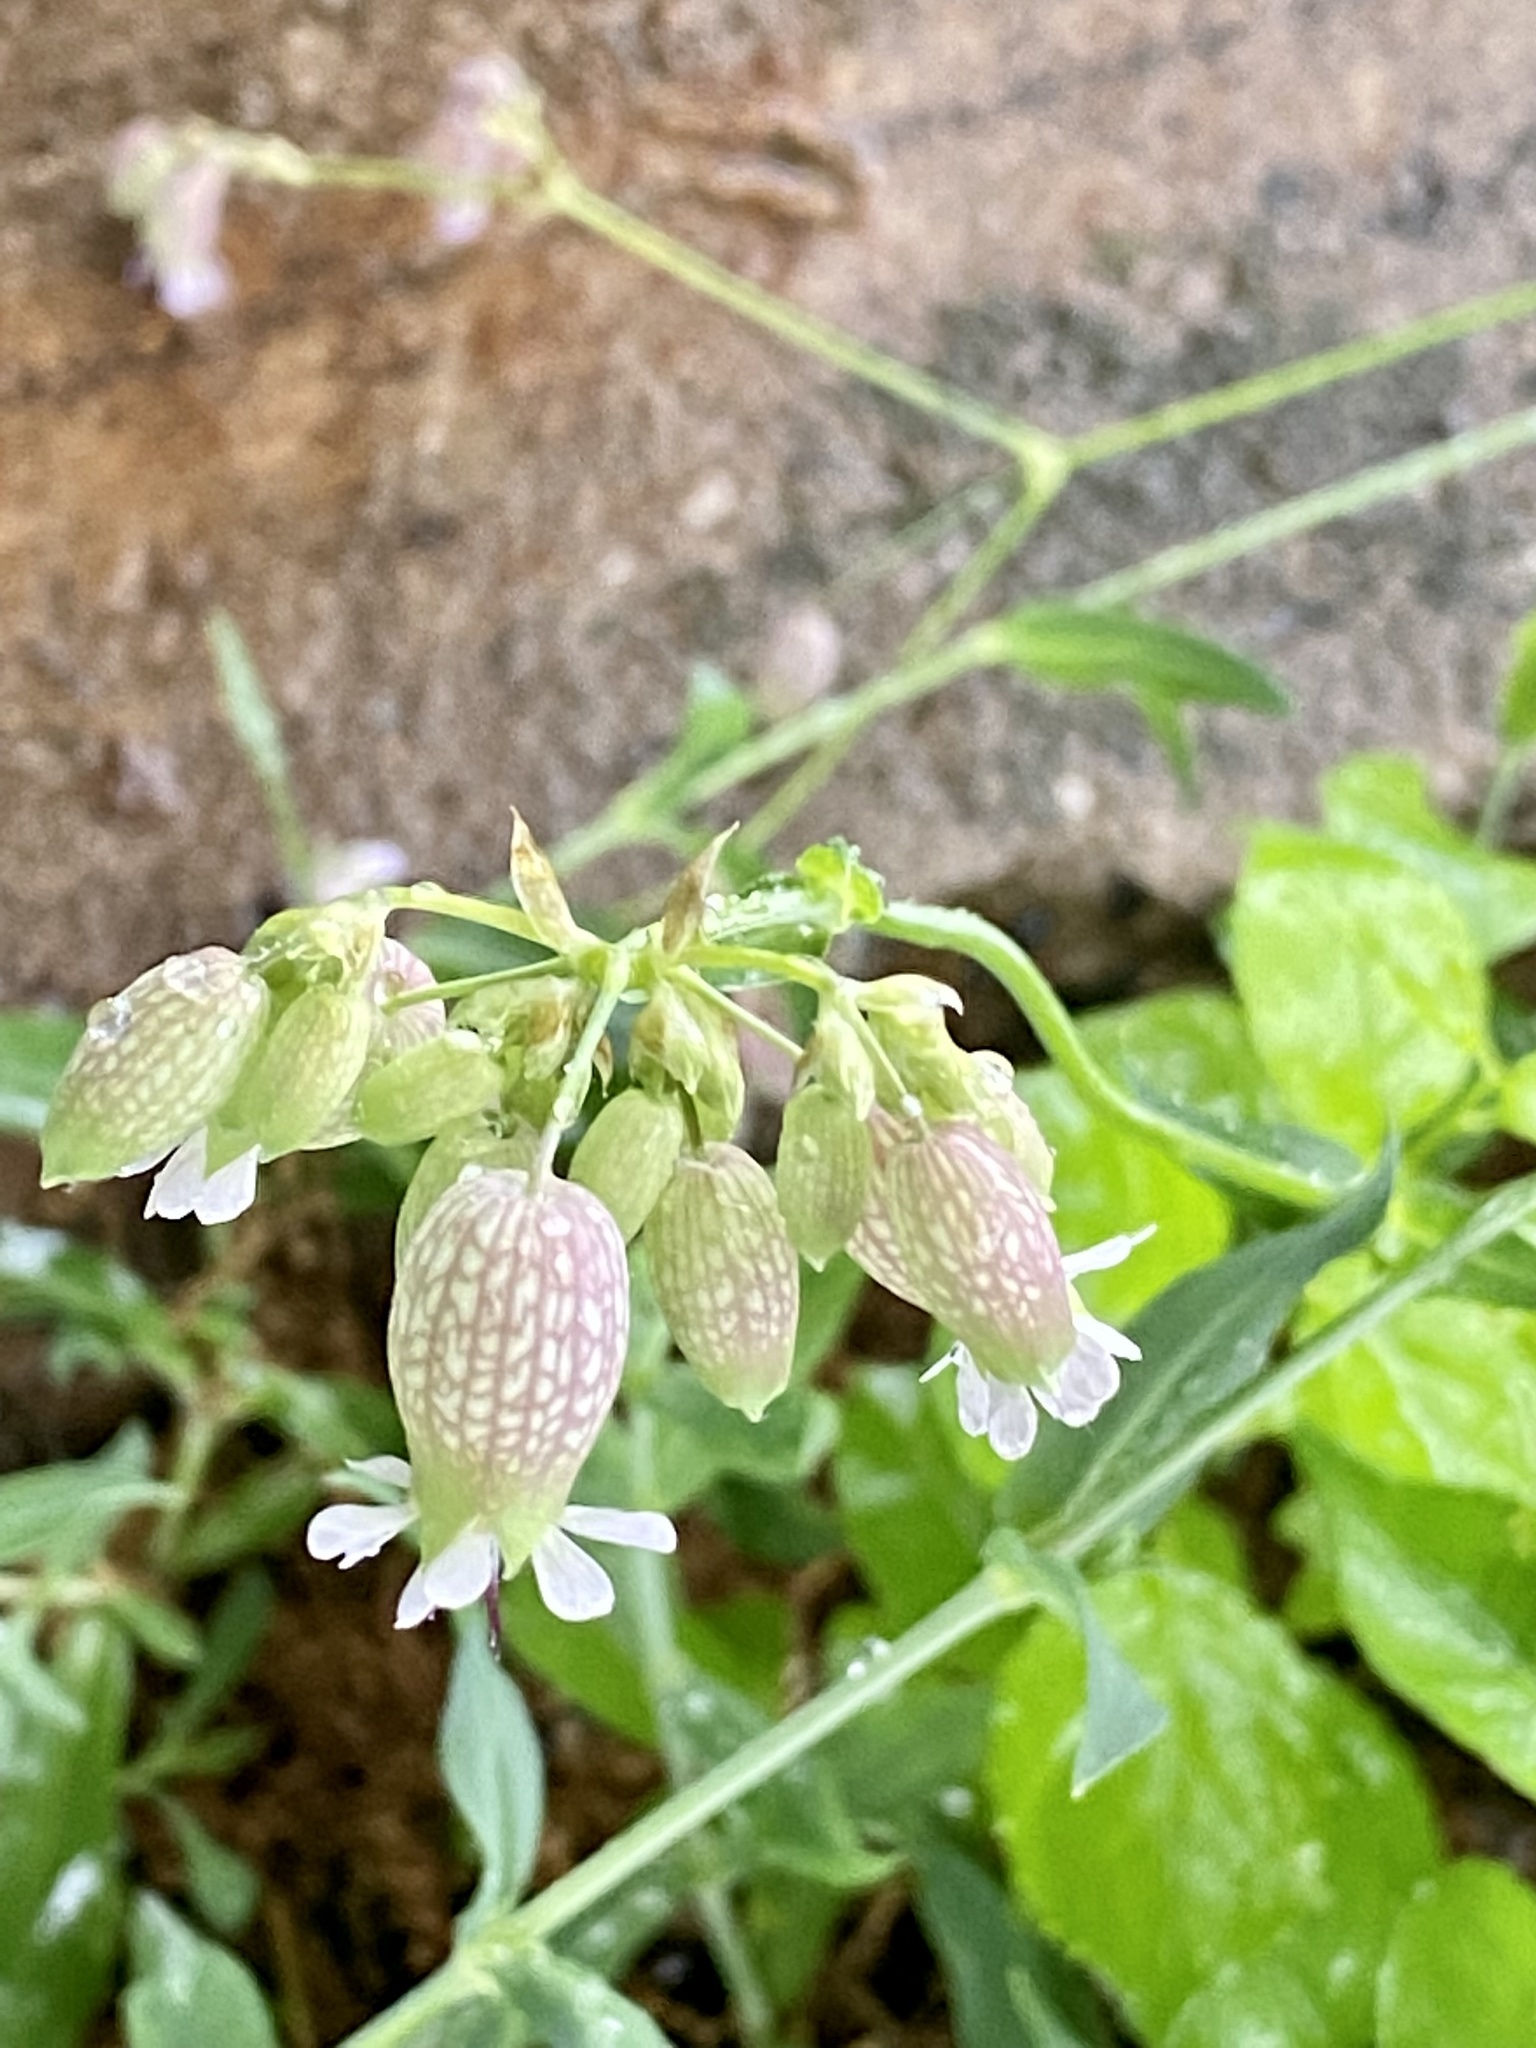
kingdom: Plantae
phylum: Tracheophyta
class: Magnoliopsida
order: Caryophyllales
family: Caryophyllaceae
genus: Silene
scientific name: Silene vulgaris
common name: Bladder campion
